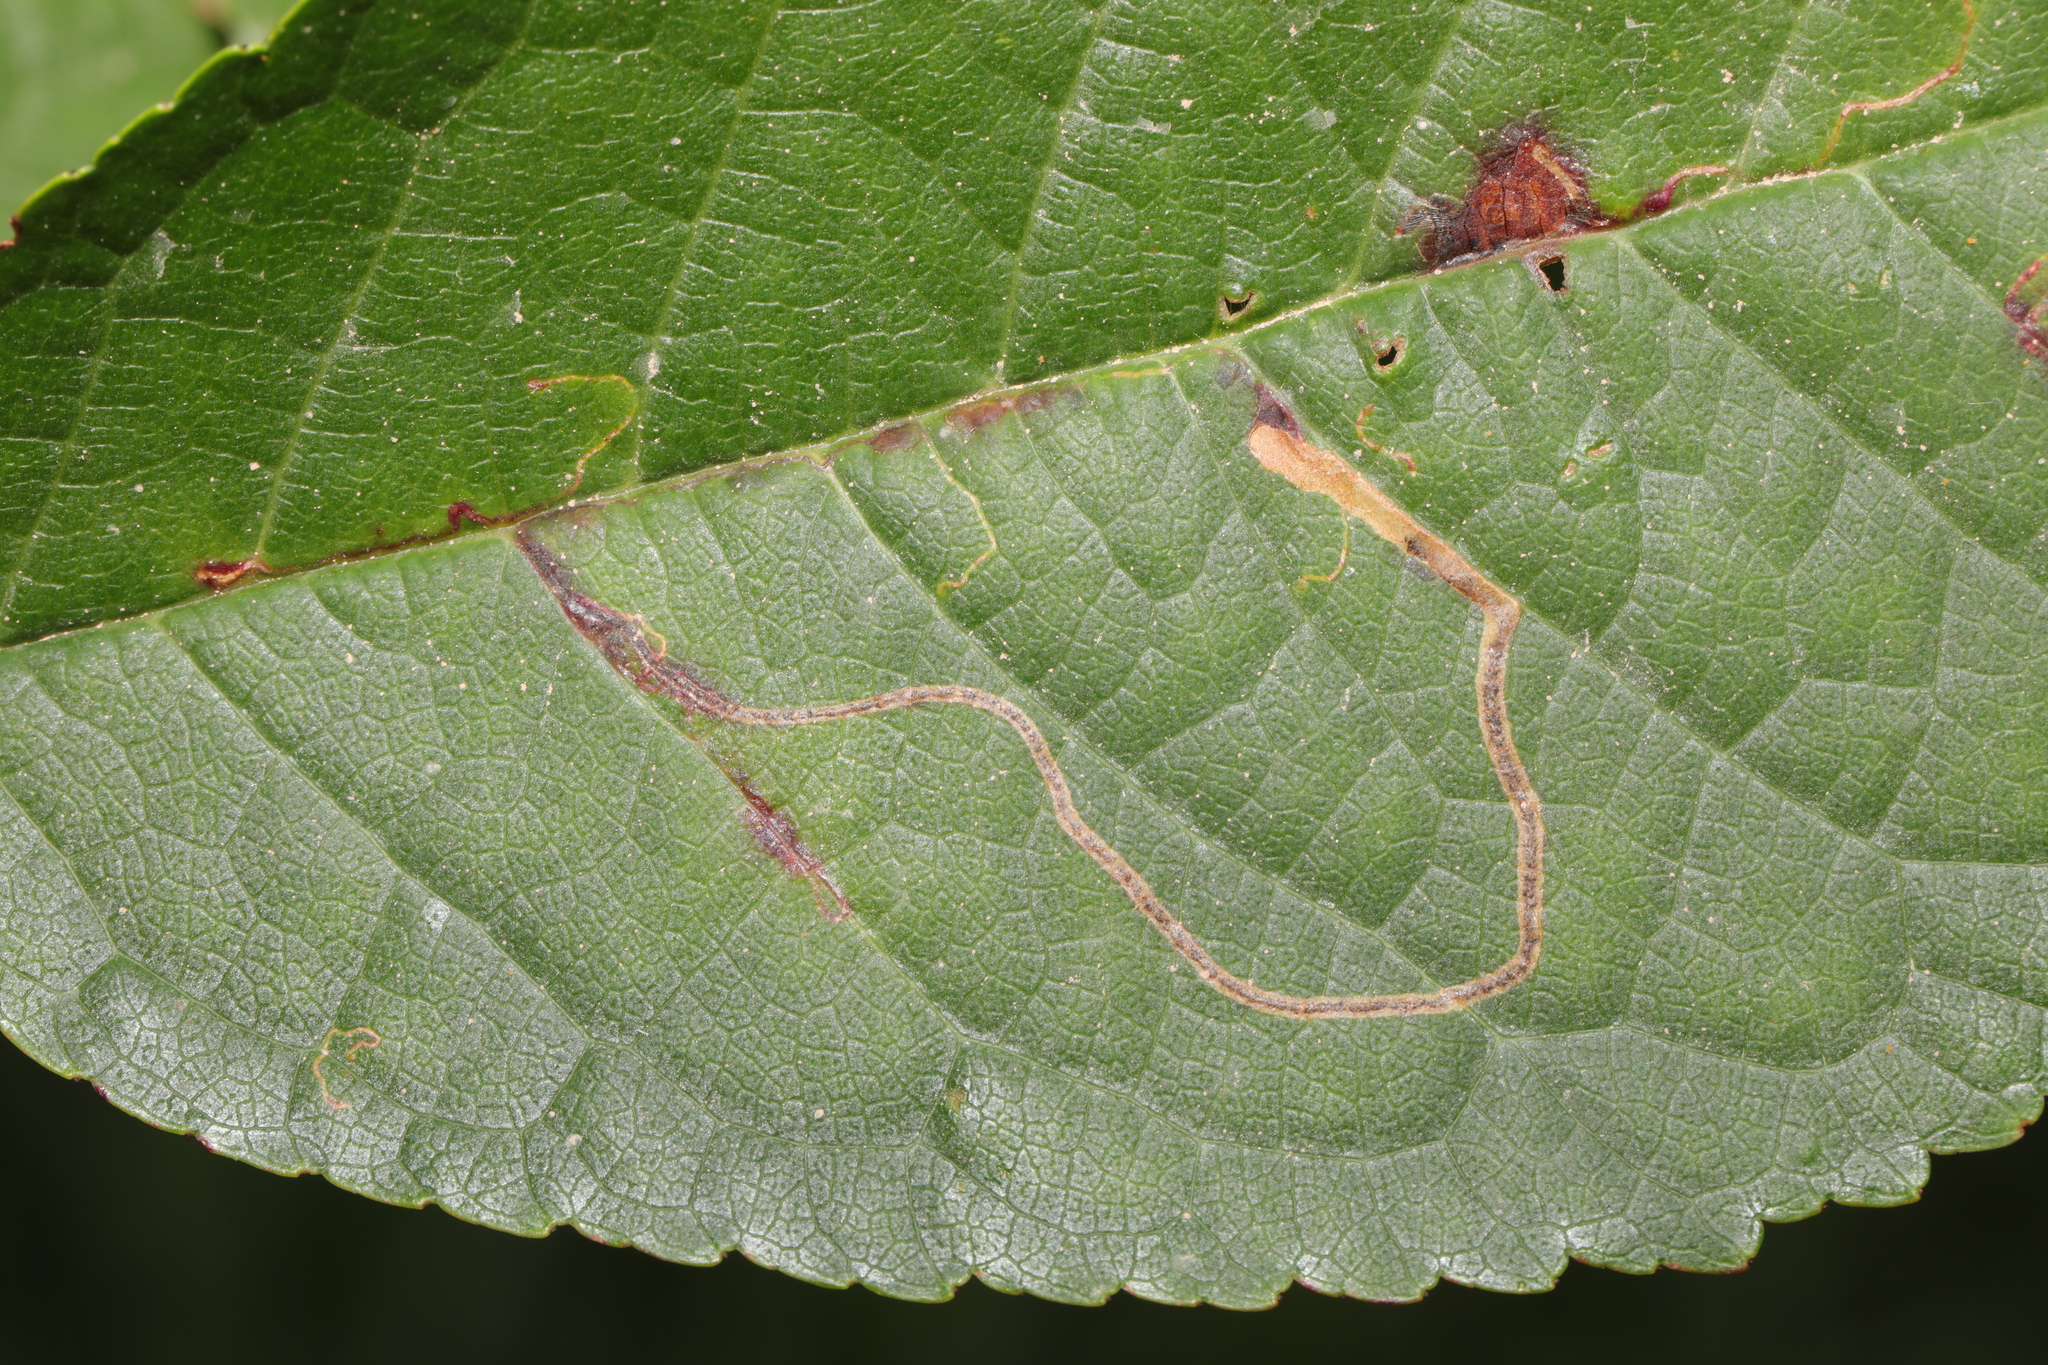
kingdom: Animalia
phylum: Arthropoda
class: Insecta
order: Lepidoptera
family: Lyonetiidae
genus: Lyonetia
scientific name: Lyonetia clerkella
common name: Apple leaf miner
